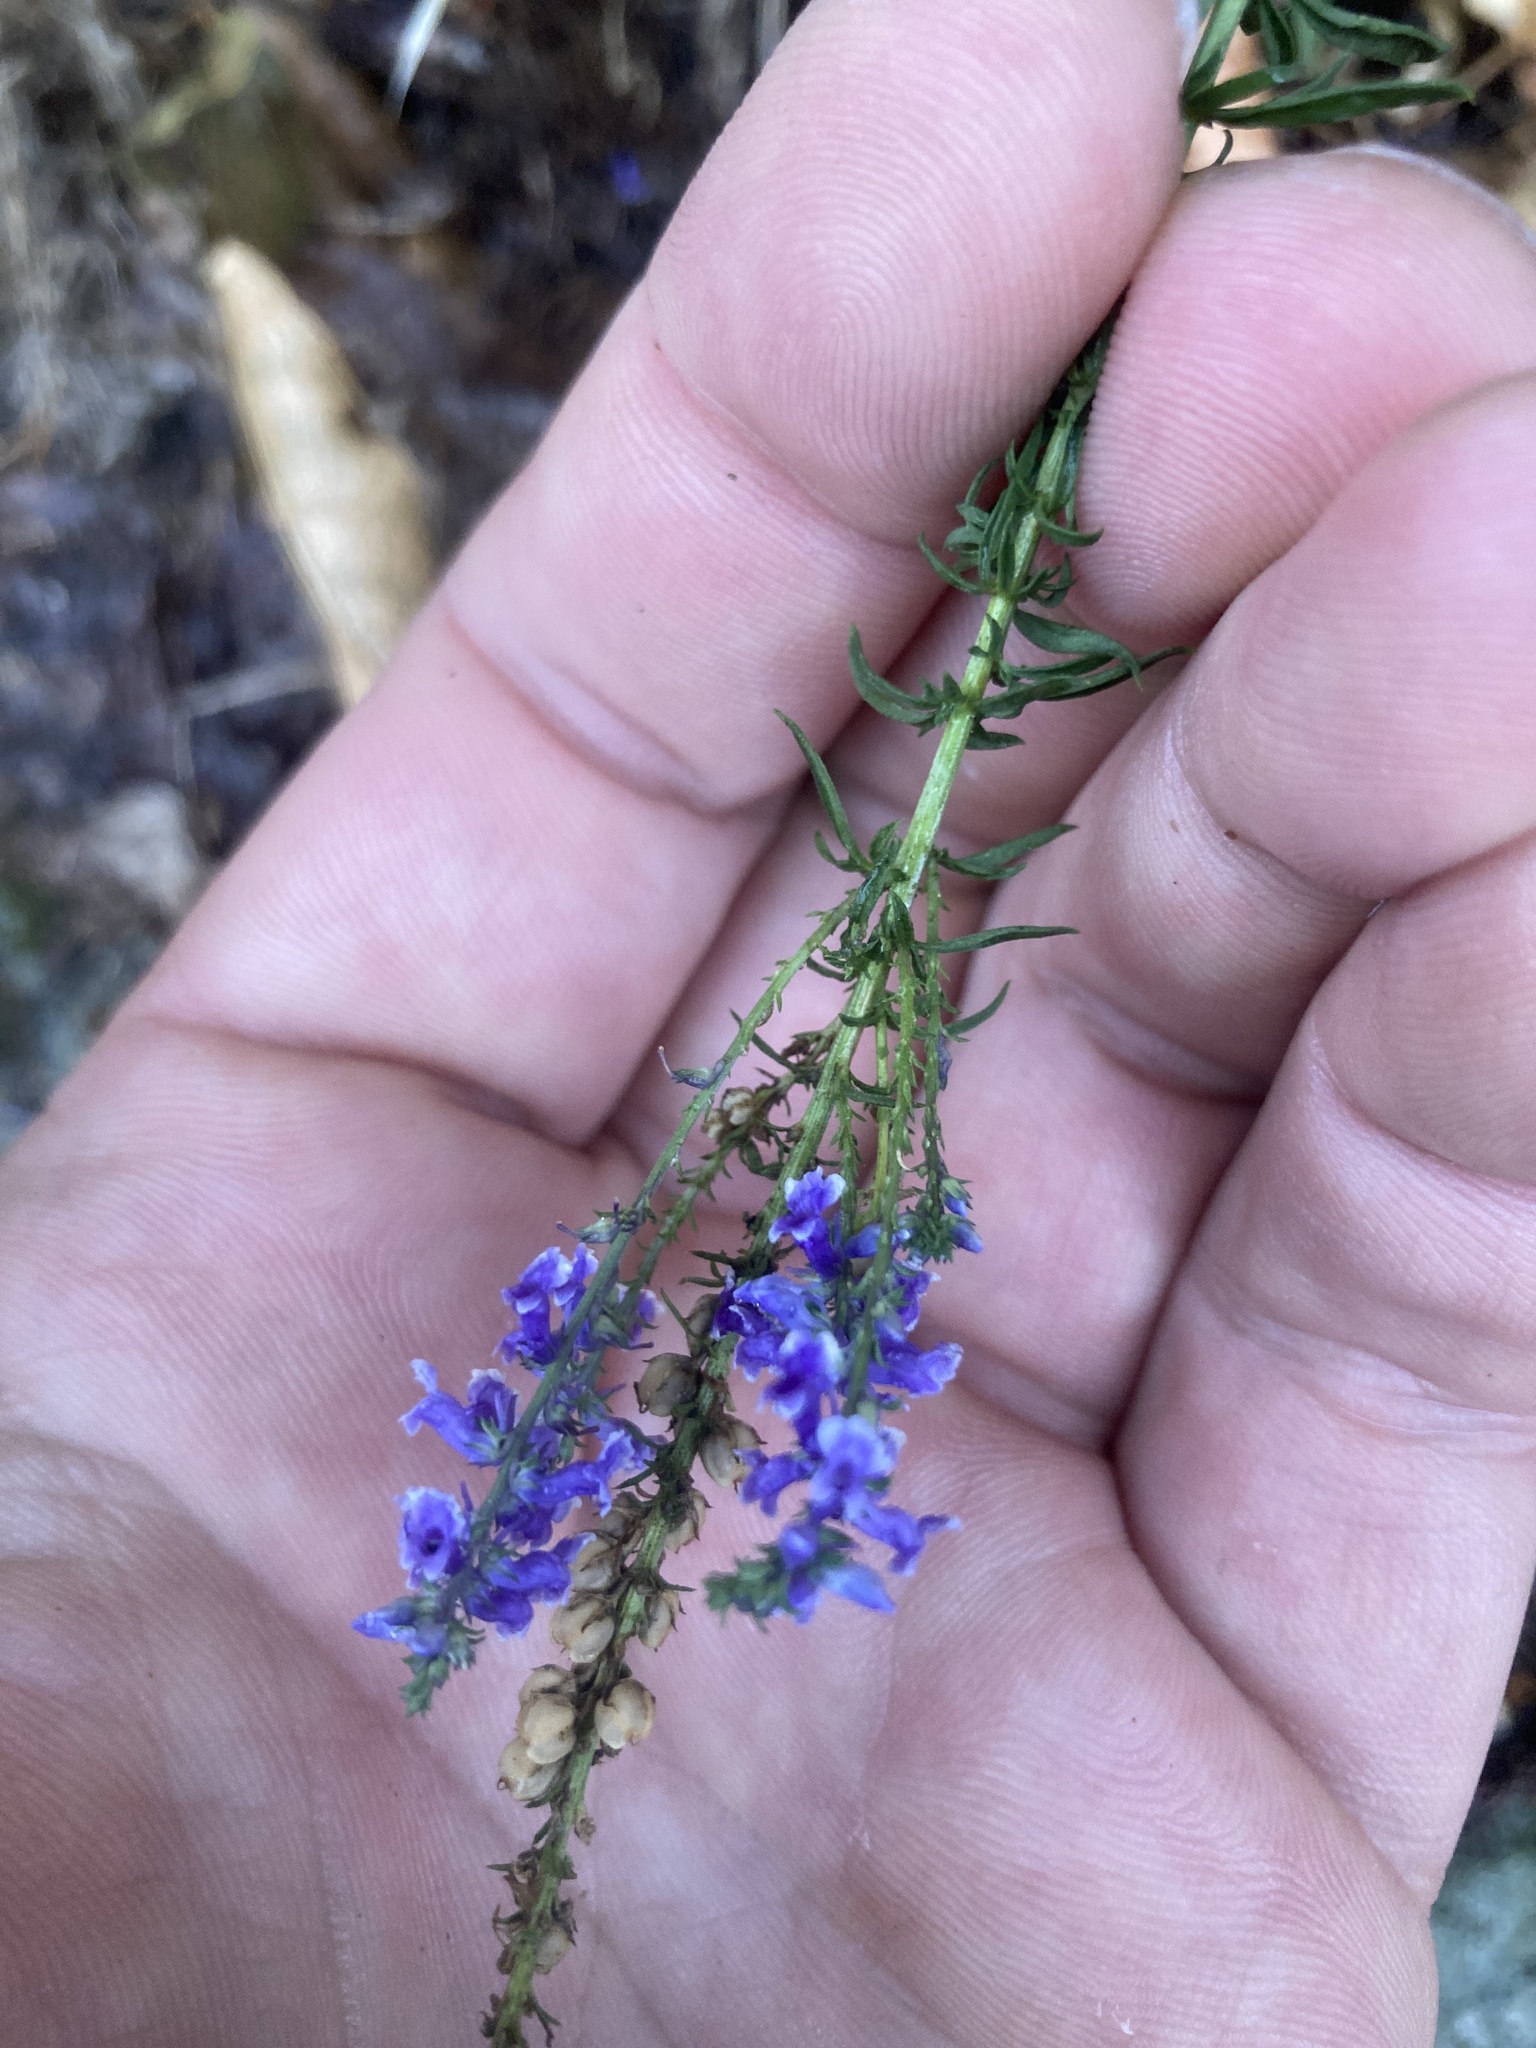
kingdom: Plantae
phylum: Tracheophyta
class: Magnoliopsida
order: Lamiales
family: Plantaginaceae
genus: Anarrhinum
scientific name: Anarrhinum bellidifolium
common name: Daisy-leaved toadflax
